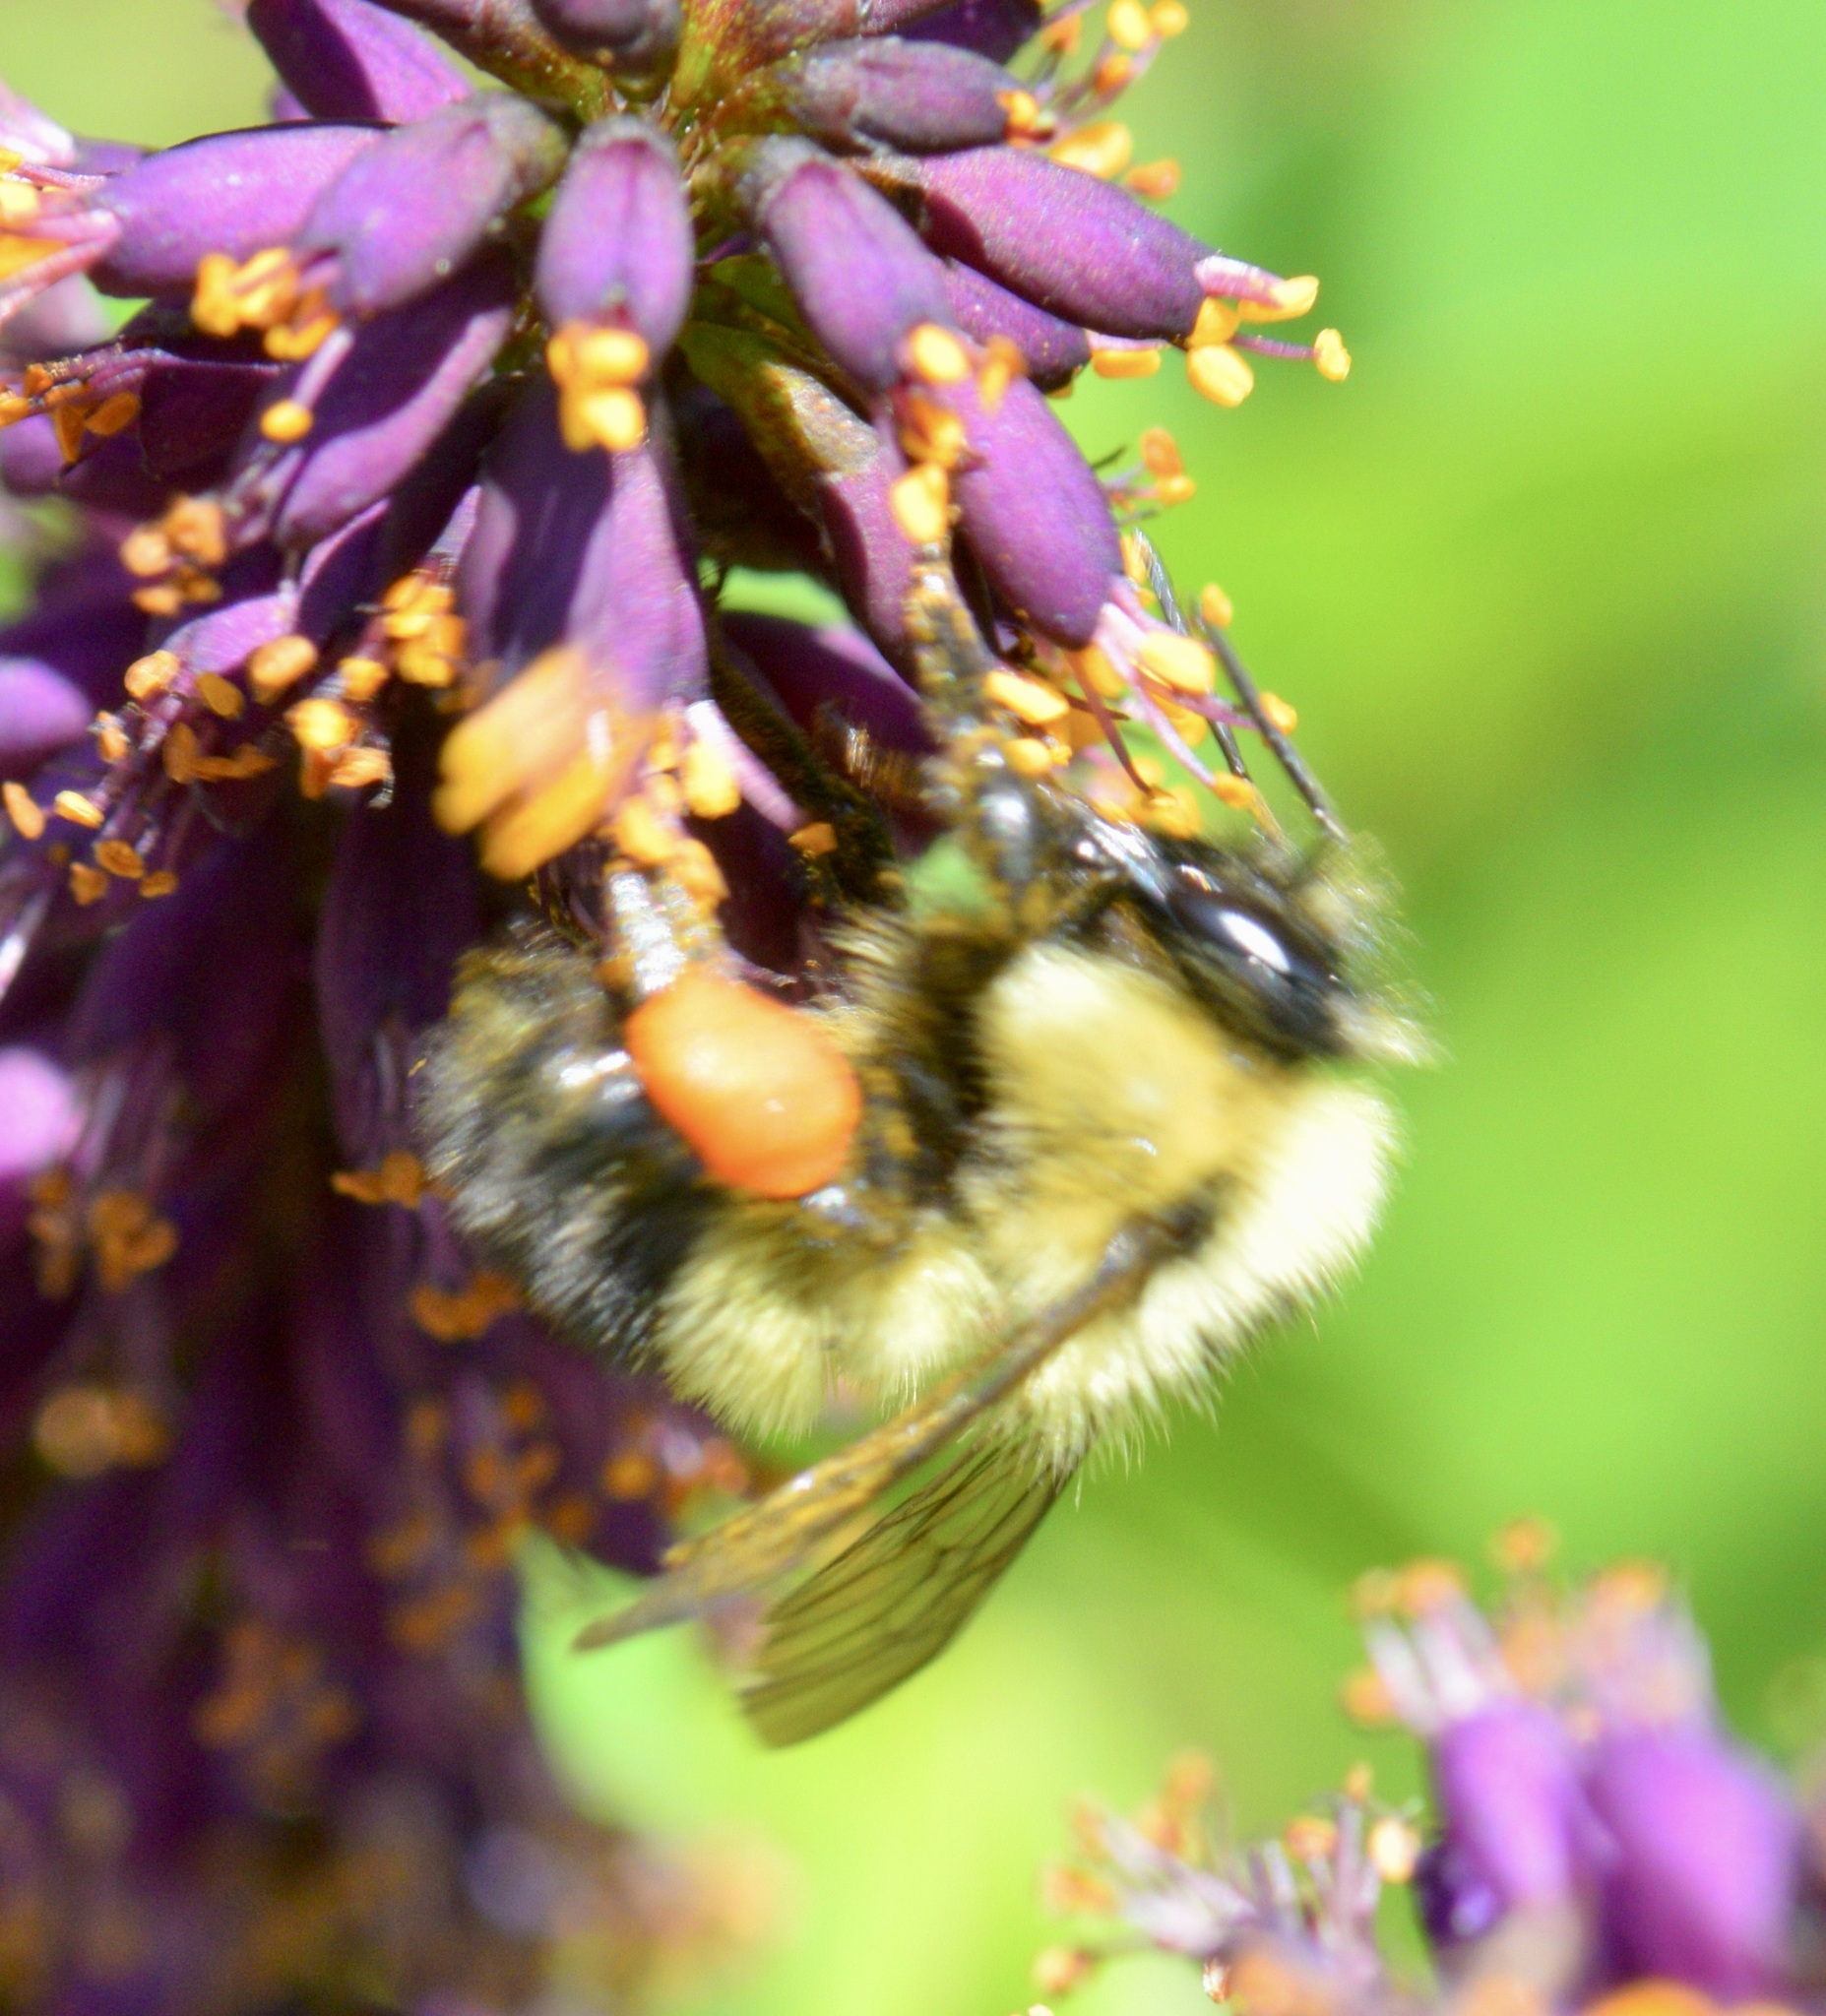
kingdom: Animalia
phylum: Arthropoda
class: Insecta
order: Hymenoptera
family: Apidae
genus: Bombus
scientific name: Bombus vagans
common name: Half-black bumble bee
